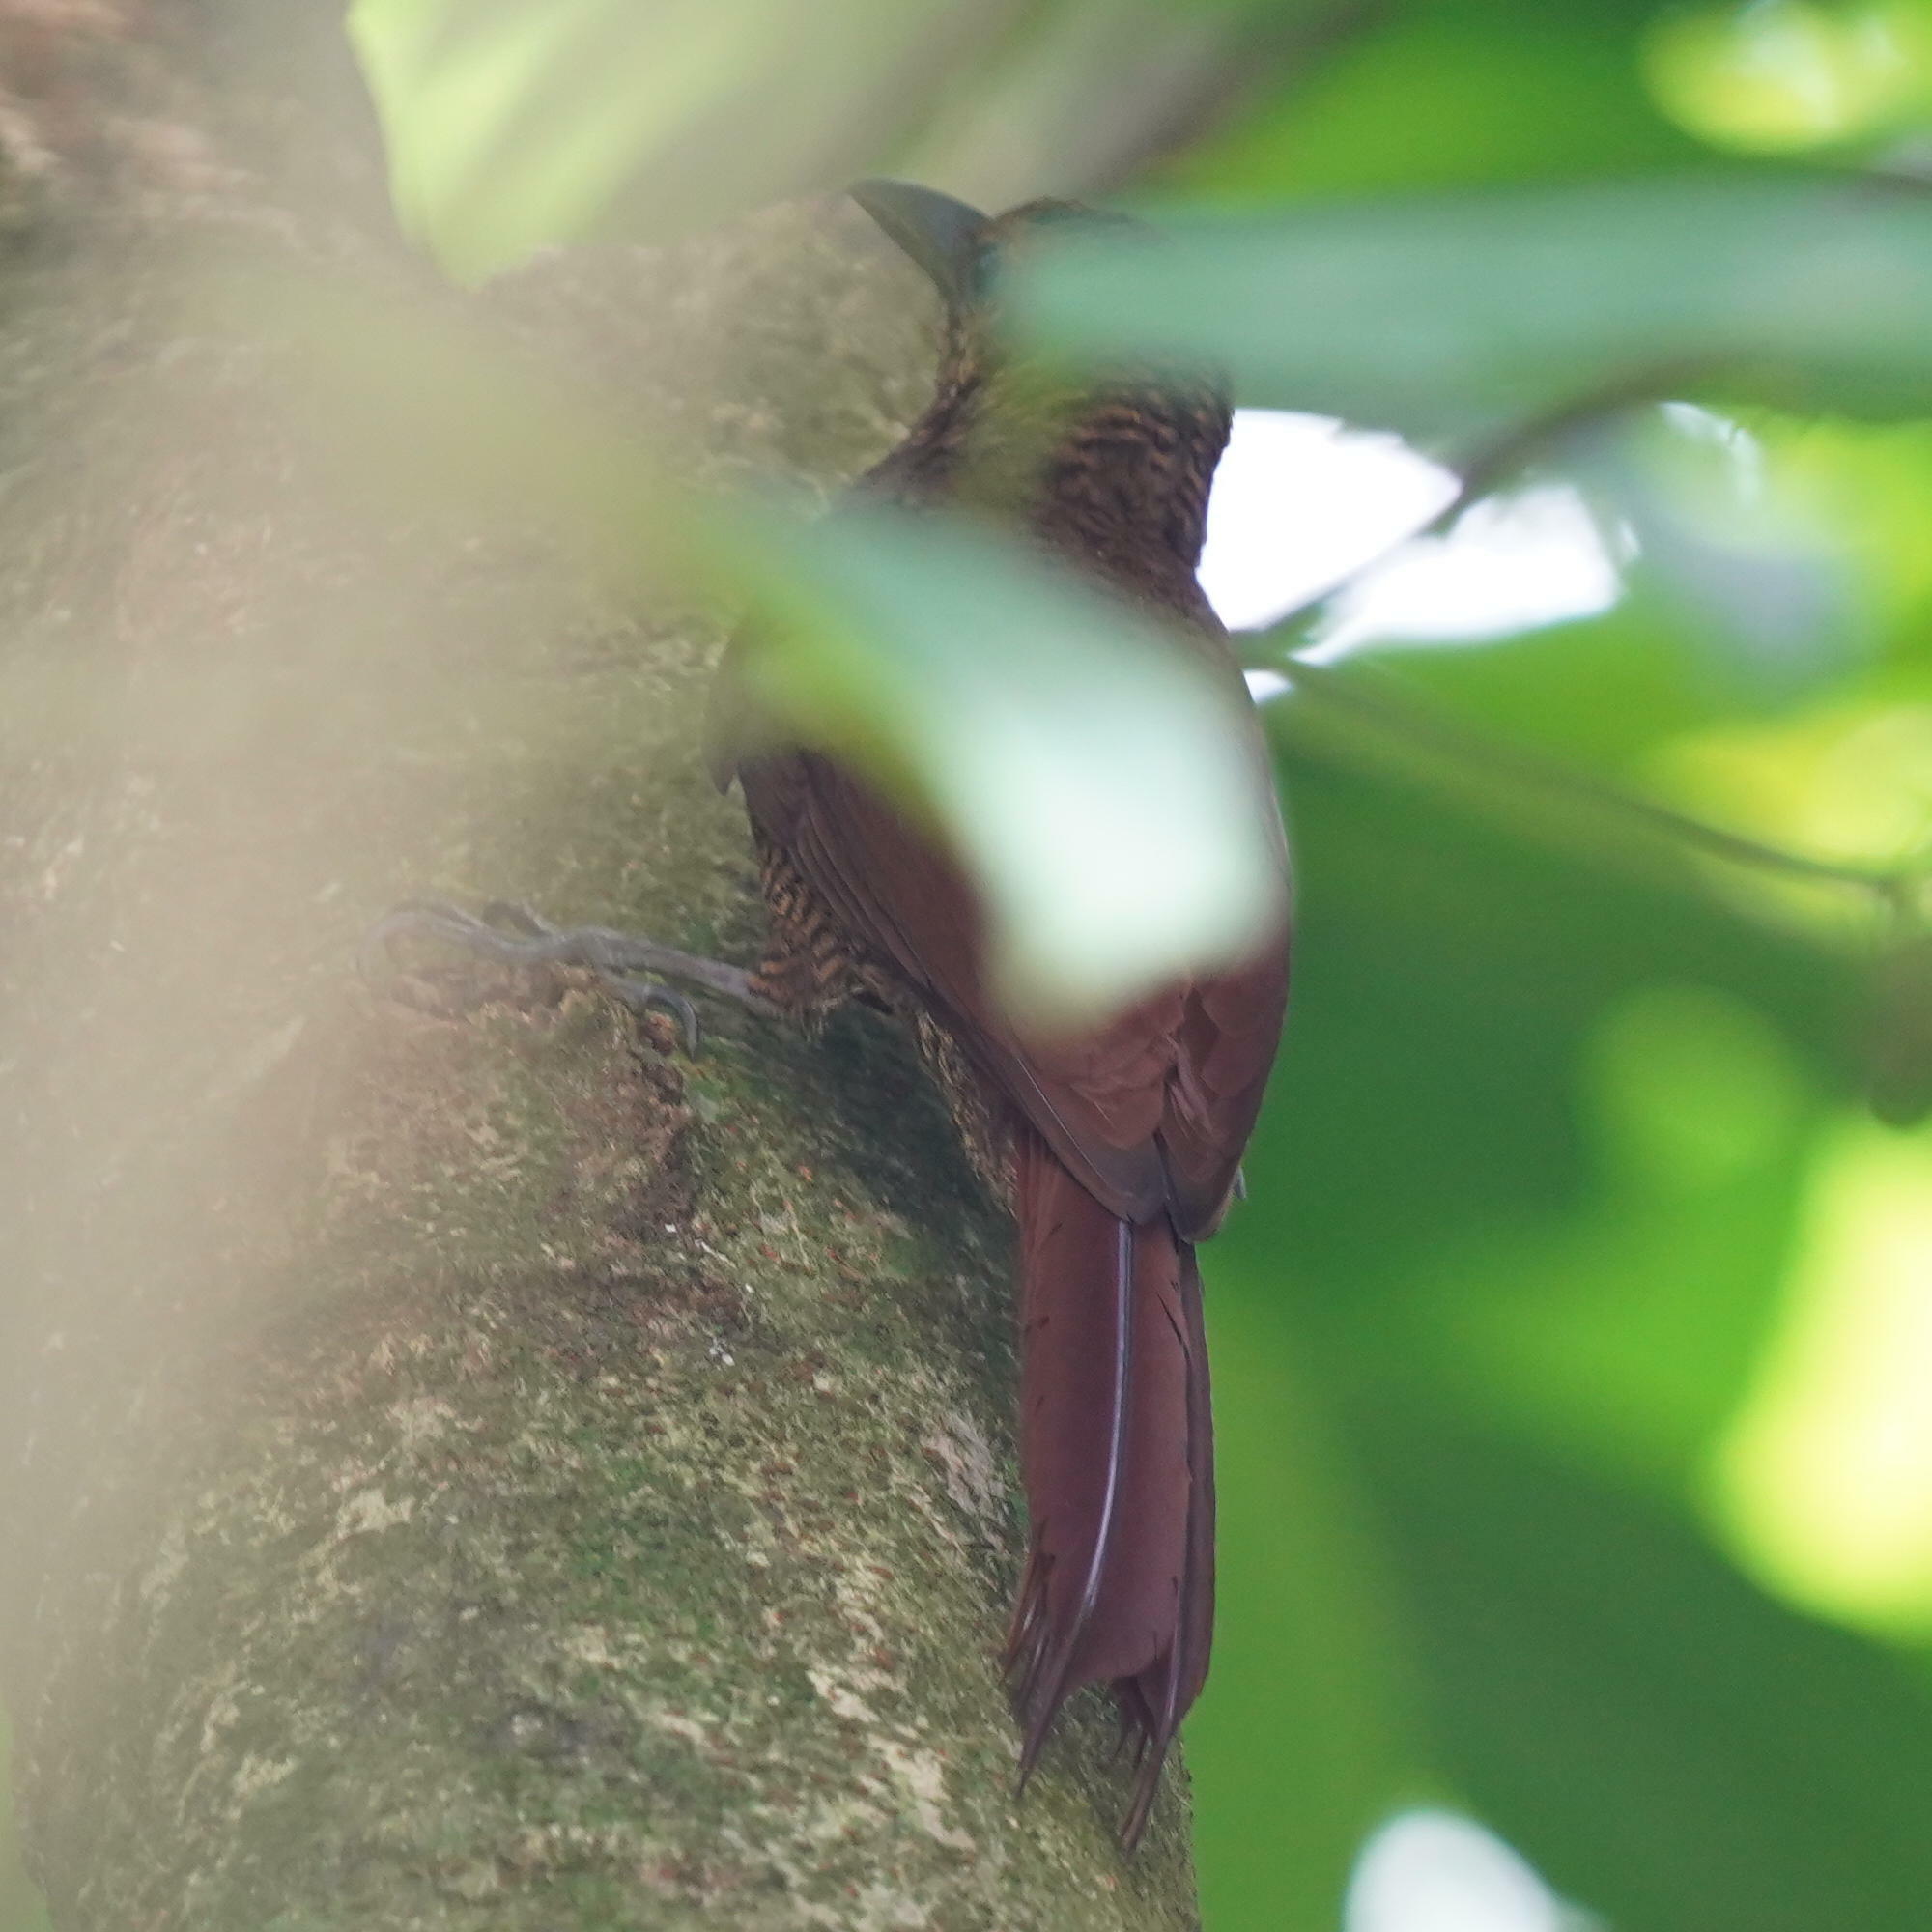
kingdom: Animalia
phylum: Chordata
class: Aves
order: Passeriformes
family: Furnariidae
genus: Dendrocolaptes
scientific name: Dendrocolaptes sanctithomae
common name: Northern barred-woodcreeper
